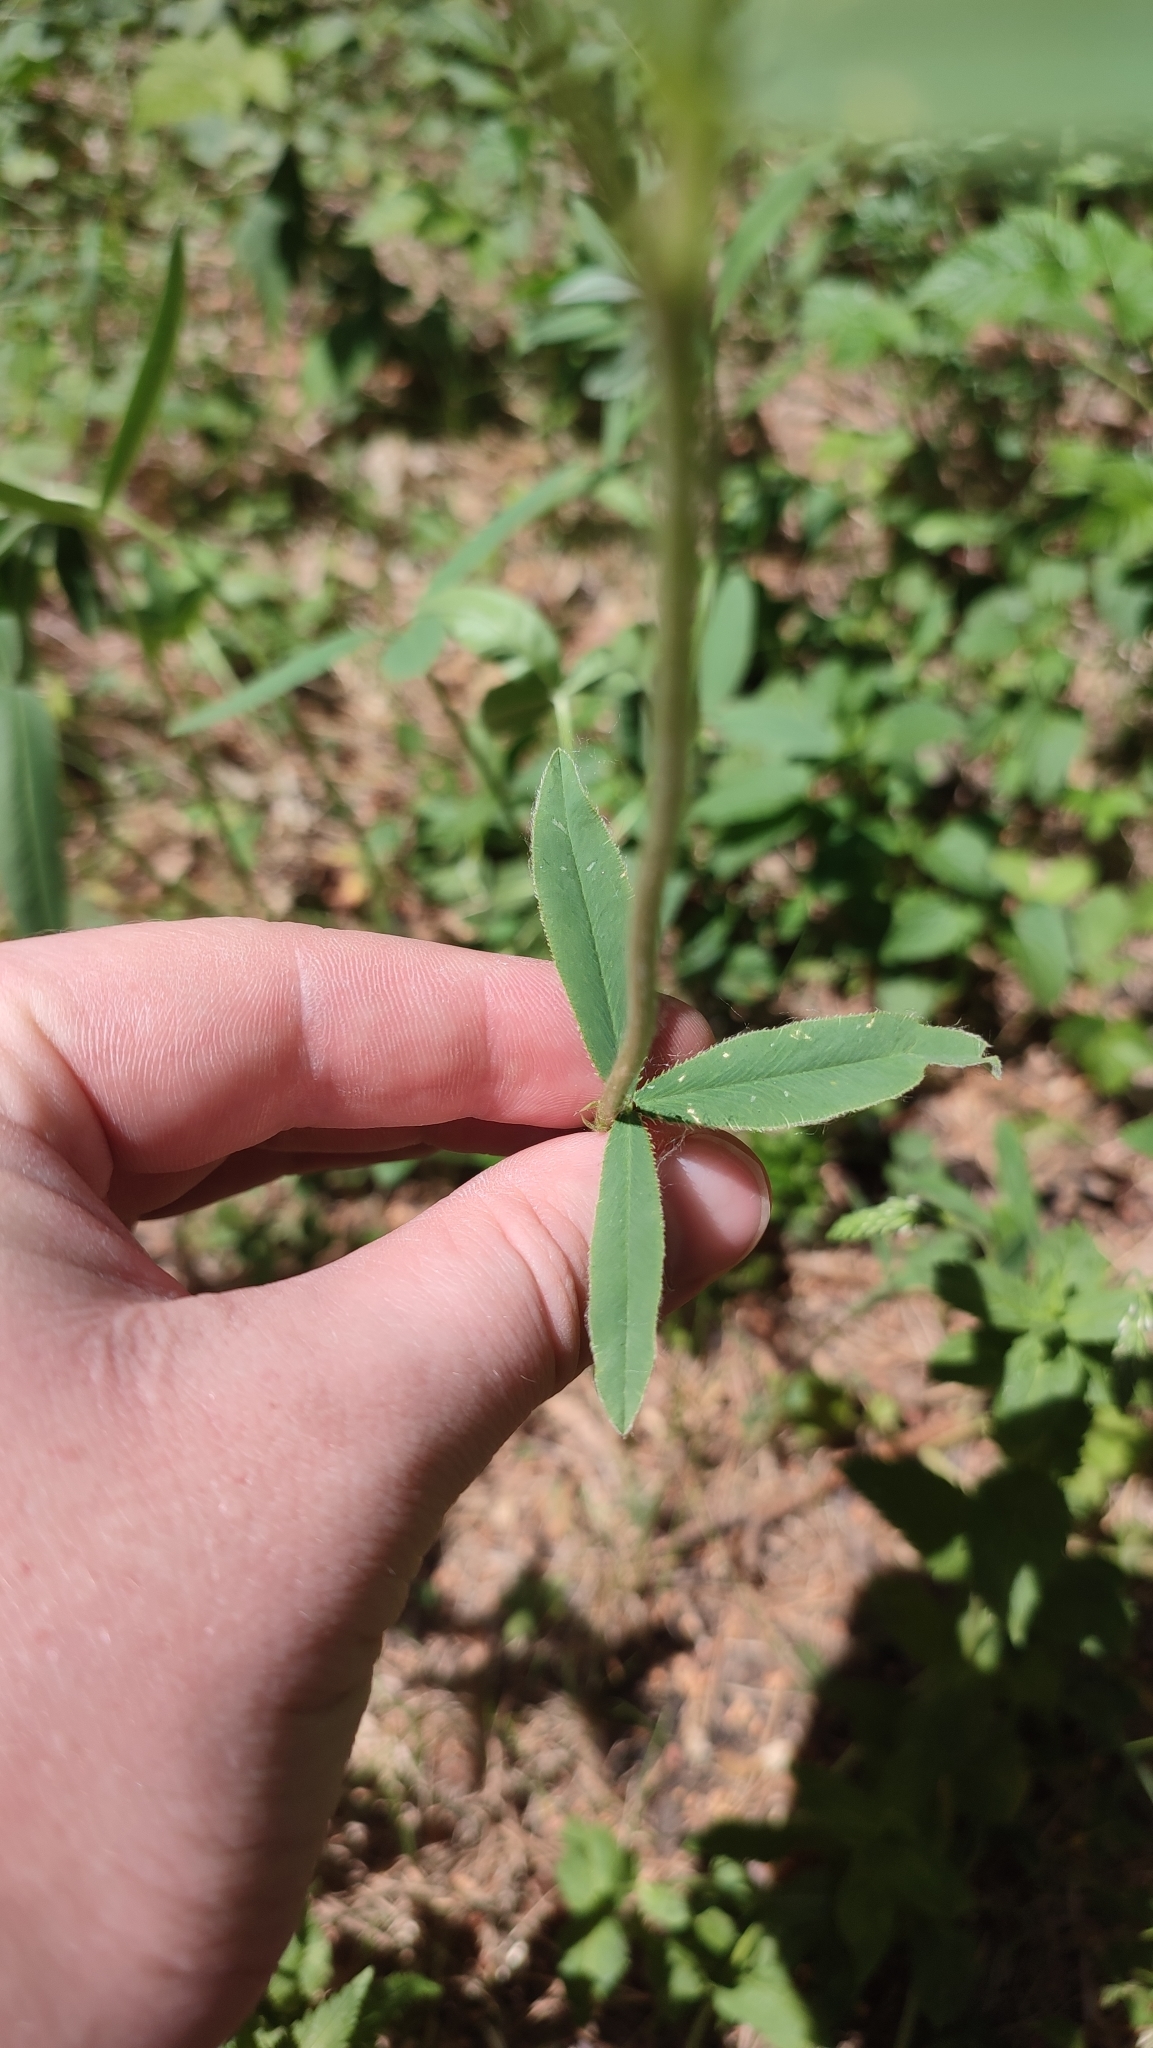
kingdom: Plantae
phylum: Tracheophyta
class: Magnoliopsida
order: Fabales
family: Fabaceae
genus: Trifolium
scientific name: Trifolium montanum
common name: Mountain clover
